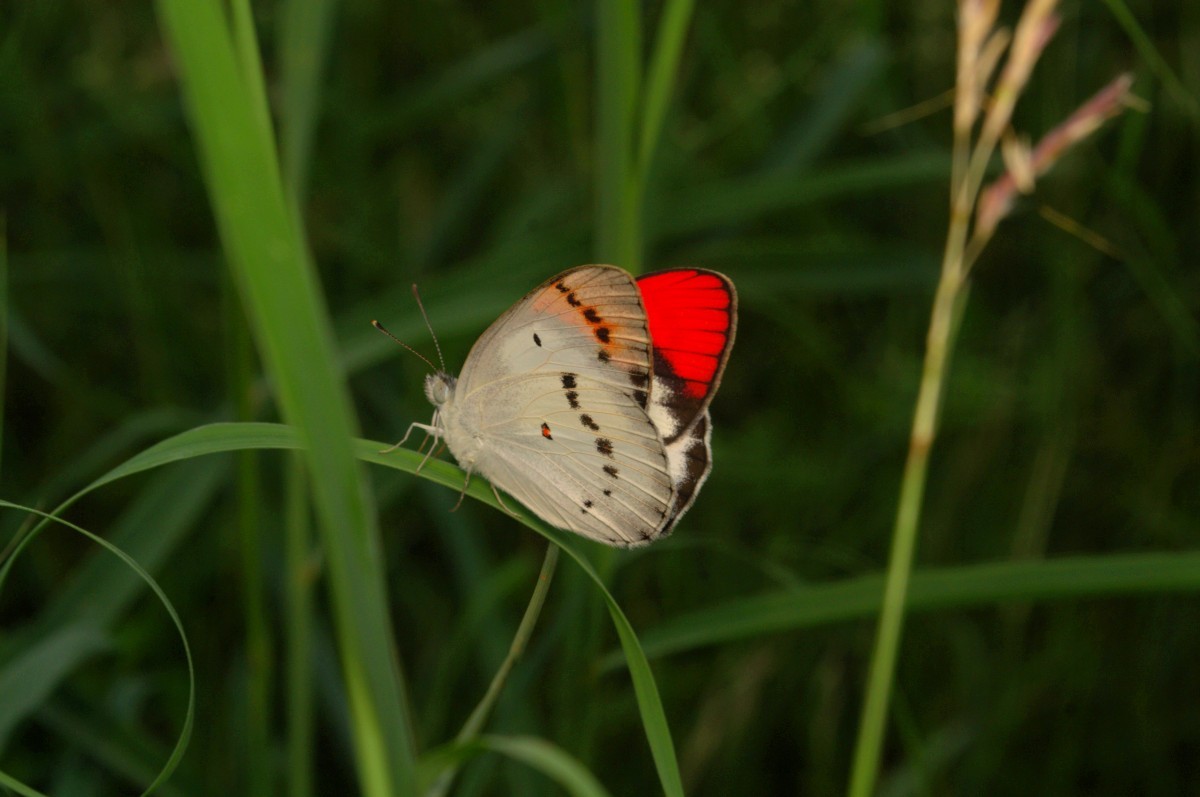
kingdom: Animalia
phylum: Arthropoda
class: Insecta
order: Lepidoptera
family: Pieridae
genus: Colotis
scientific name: Colotis danae
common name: Crimson tip
